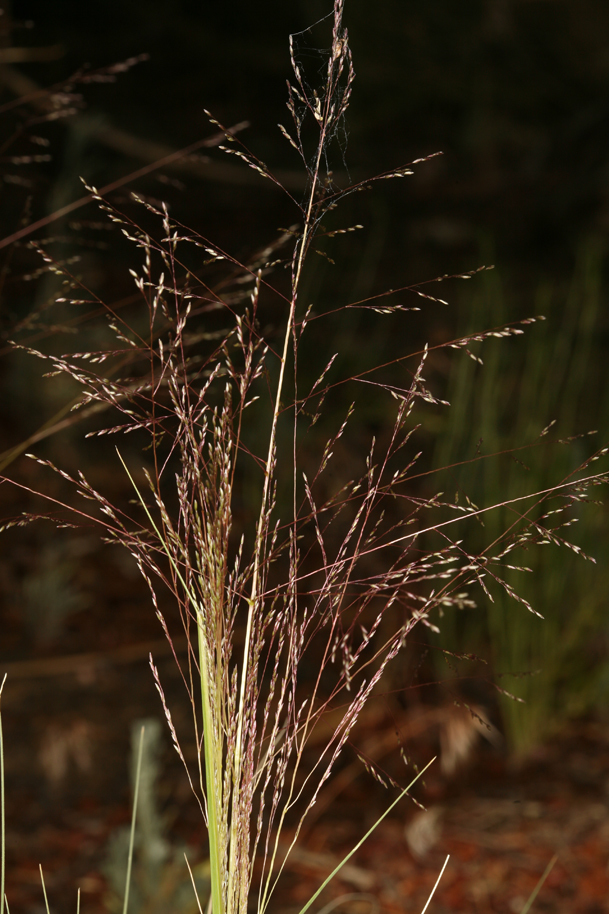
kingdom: Plantae
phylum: Tracheophyta
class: Liliopsida
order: Poales
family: Poaceae
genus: Sporobolus
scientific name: Sporobolus airoides
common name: Alkali sacaton
